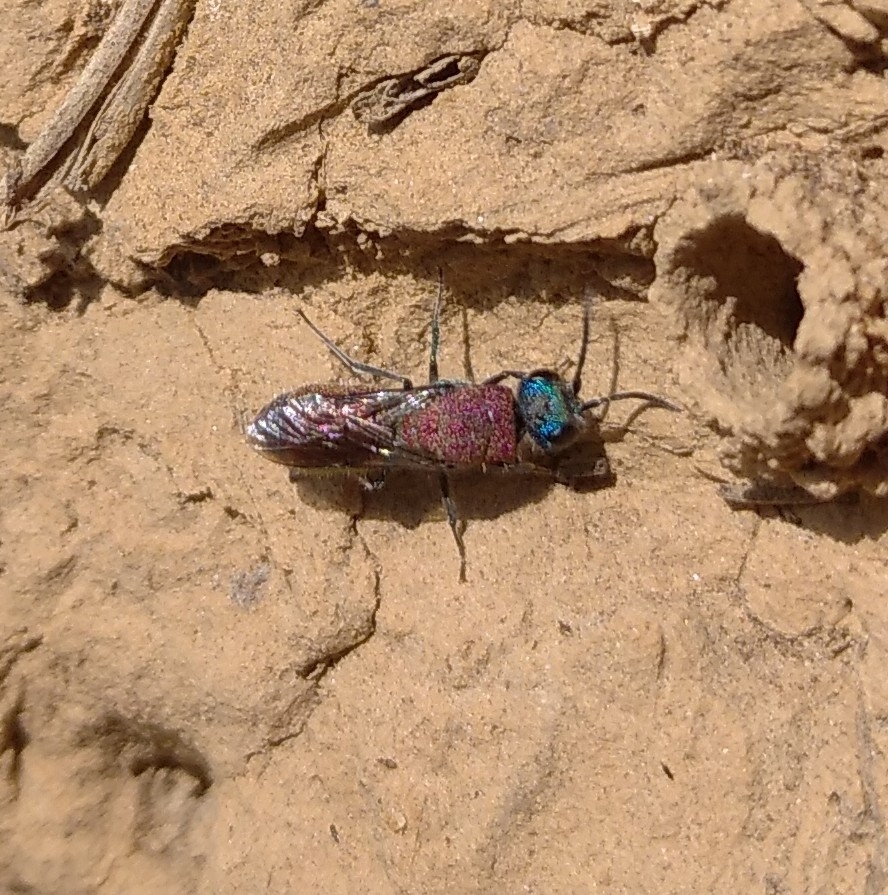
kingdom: Animalia
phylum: Arthropoda
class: Insecta
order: Hymenoptera
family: Chrysididae
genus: Chrysis
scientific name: Chrysis viridula
